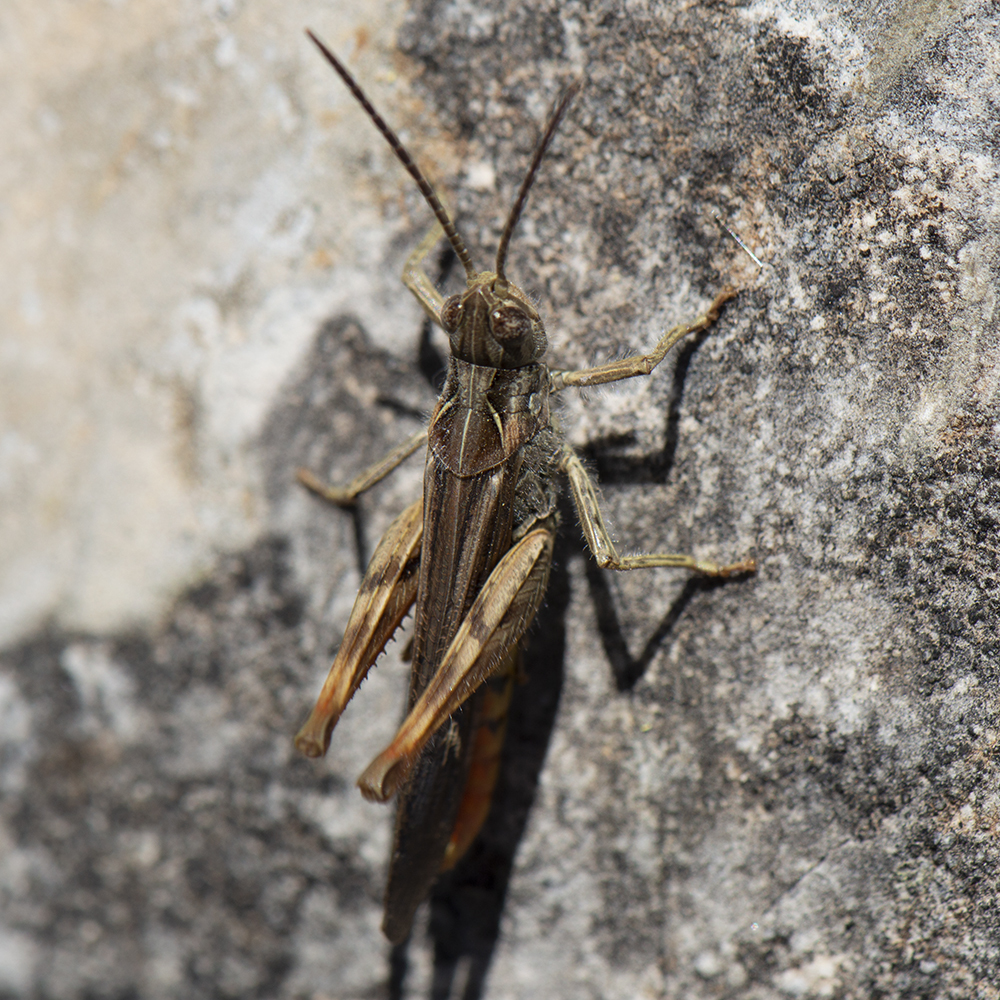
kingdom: Animalia
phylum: Arthropoda
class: Insecta
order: Orthoptera
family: Acrididae
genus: Chorthippus
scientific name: Chorthippus maritimus
